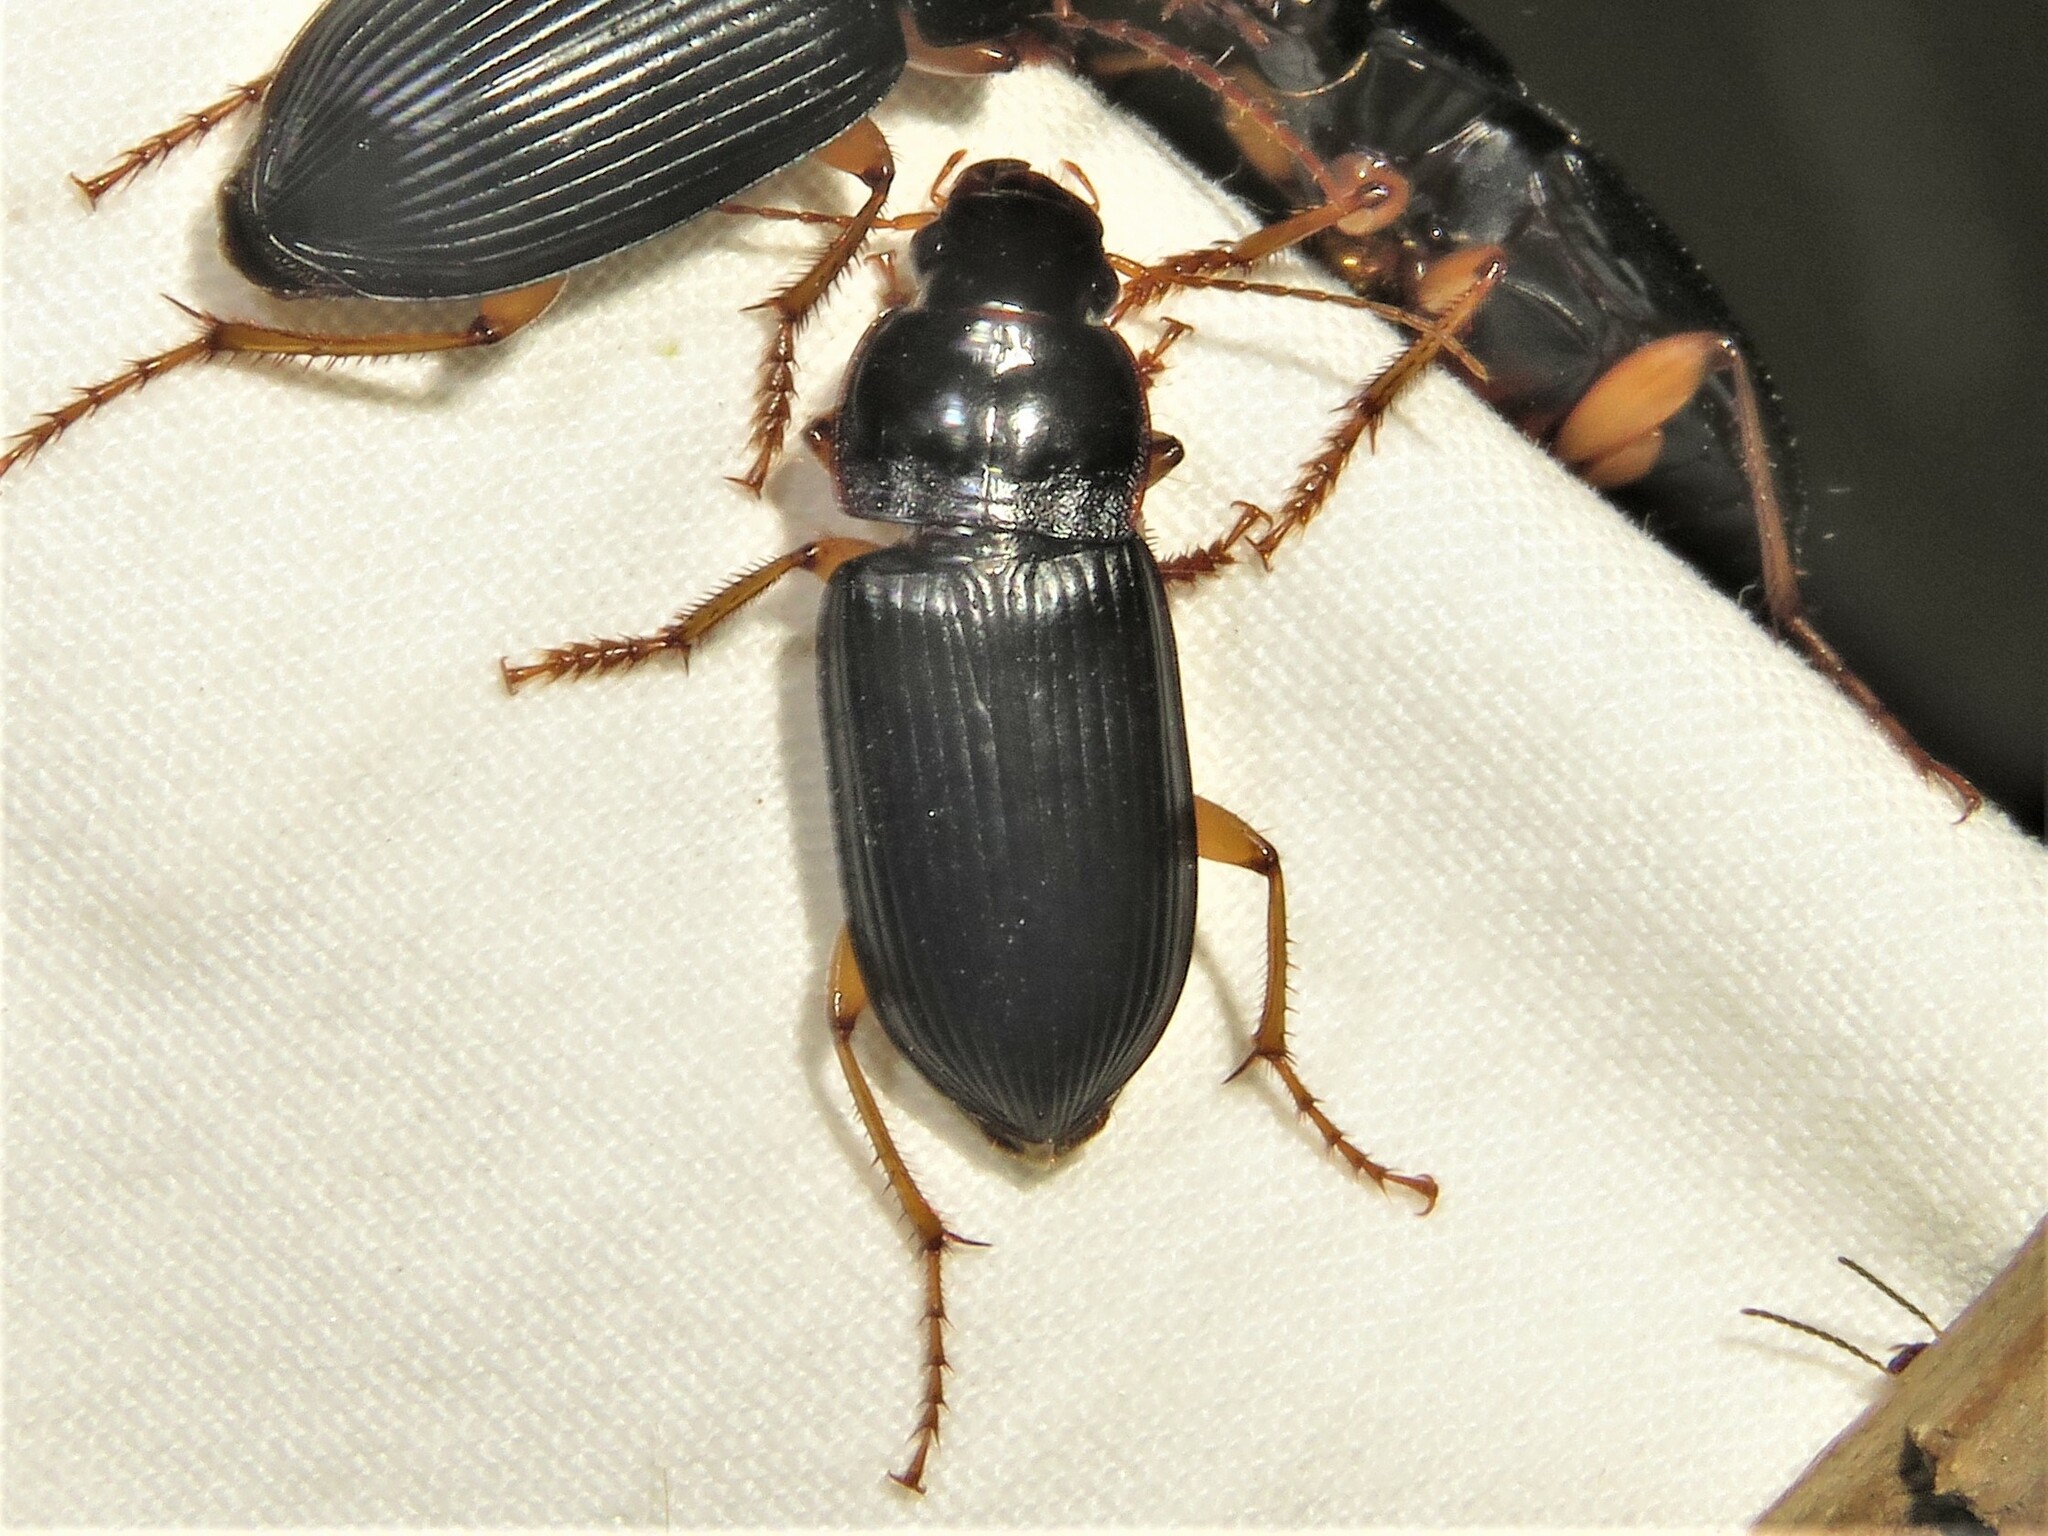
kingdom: Animalia
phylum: Arthropoda
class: Insecta
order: Coleoptera
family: Carabidae
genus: Harpalus
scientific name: Harpalus pensylvanicus
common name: Pennsylvania dingy ground beetle
